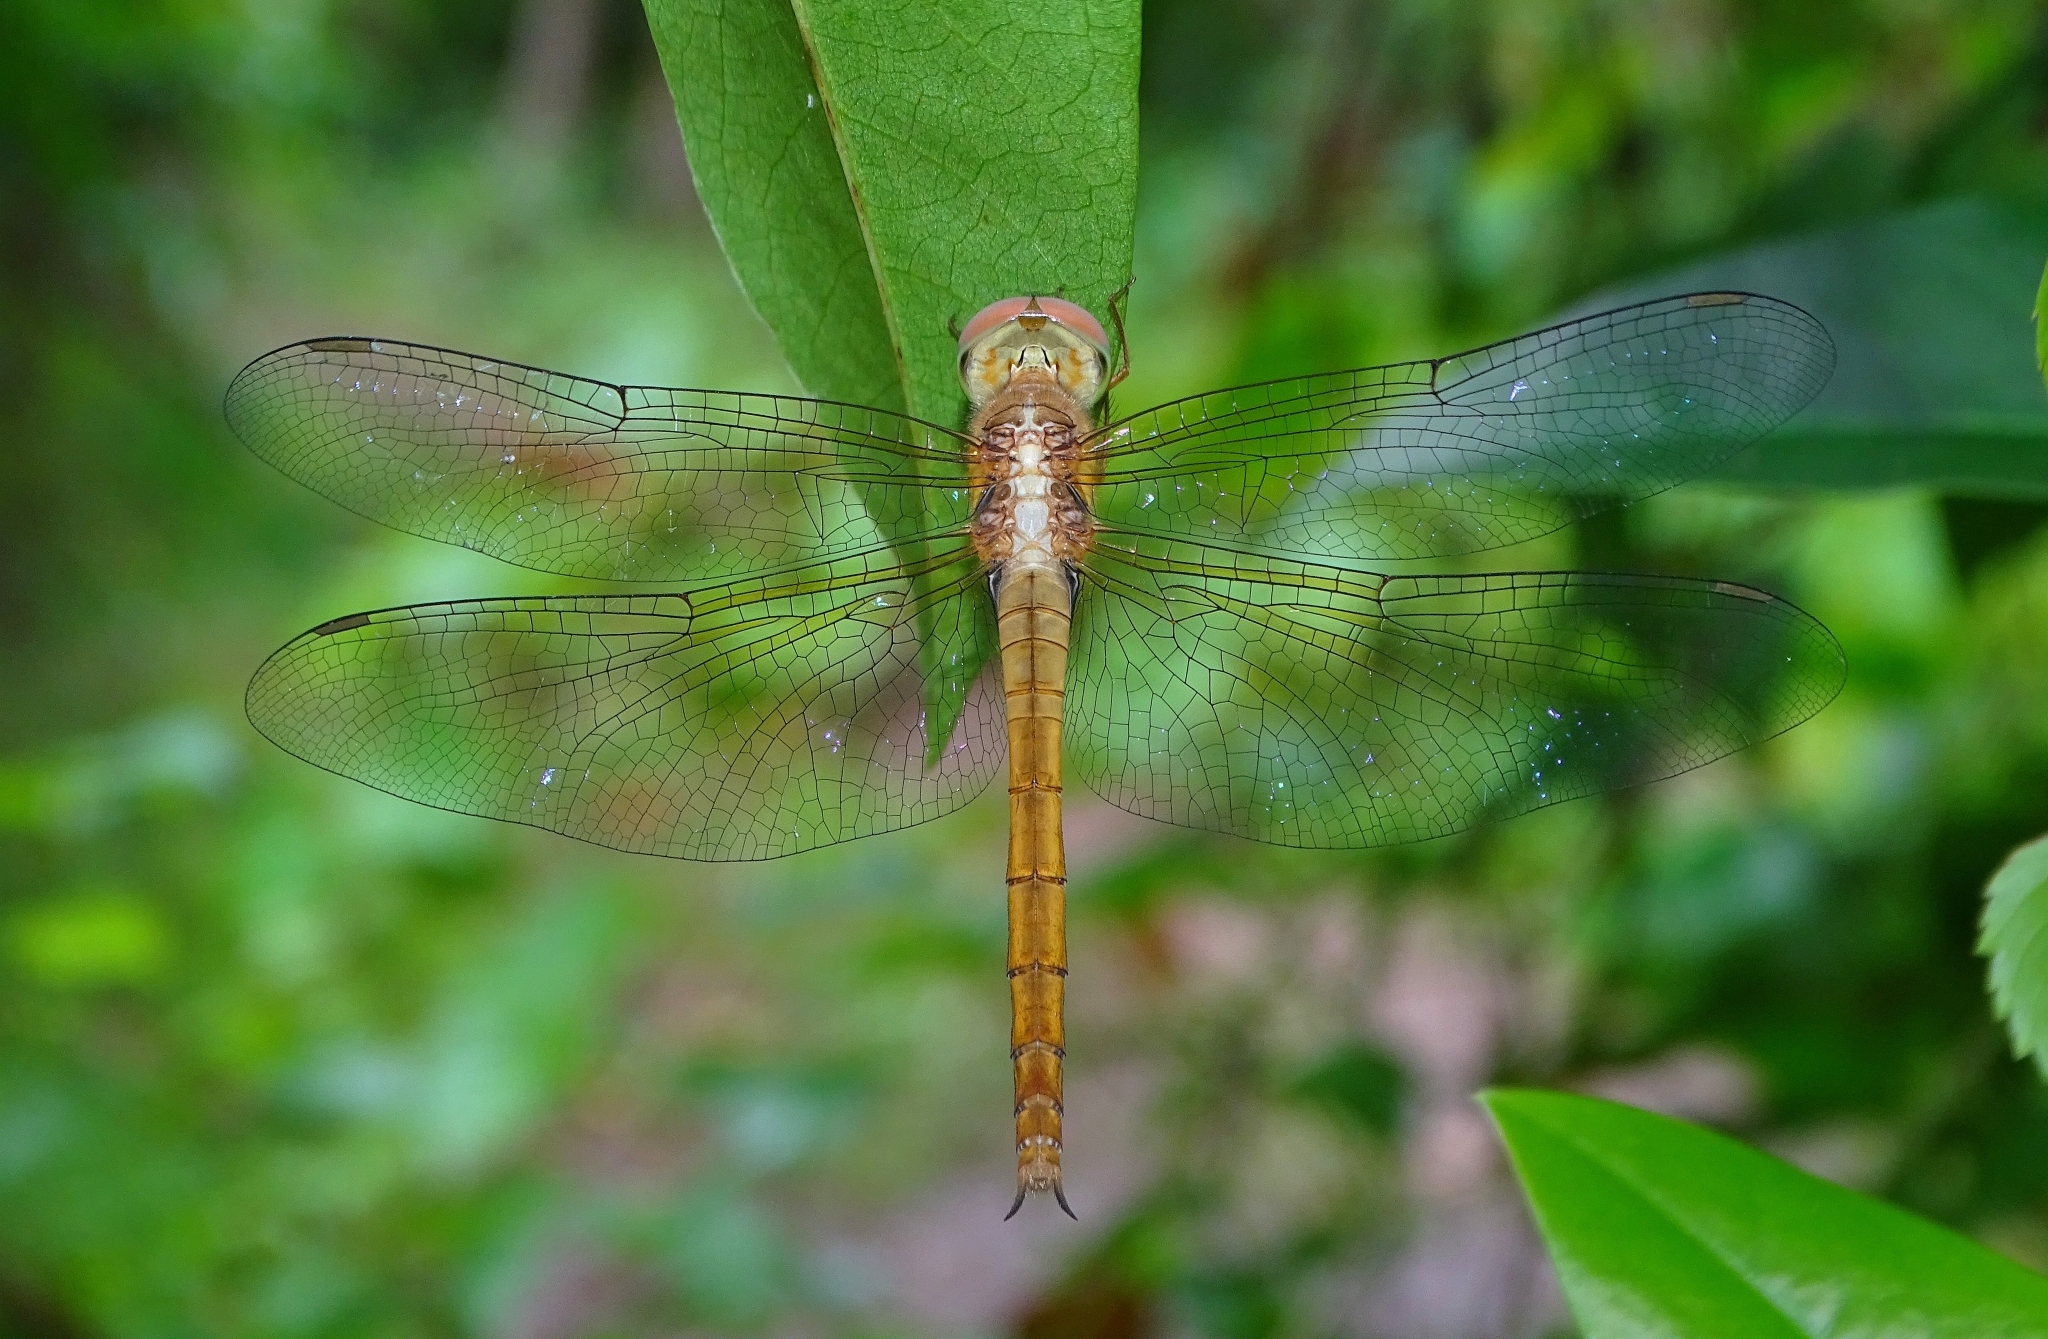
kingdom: Animalia
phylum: Arthropoda
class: Insecta
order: Odonata
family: Libellulidae
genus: Tholymis
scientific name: Tholymis tillarga
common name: Coral-tailed cloud wing
